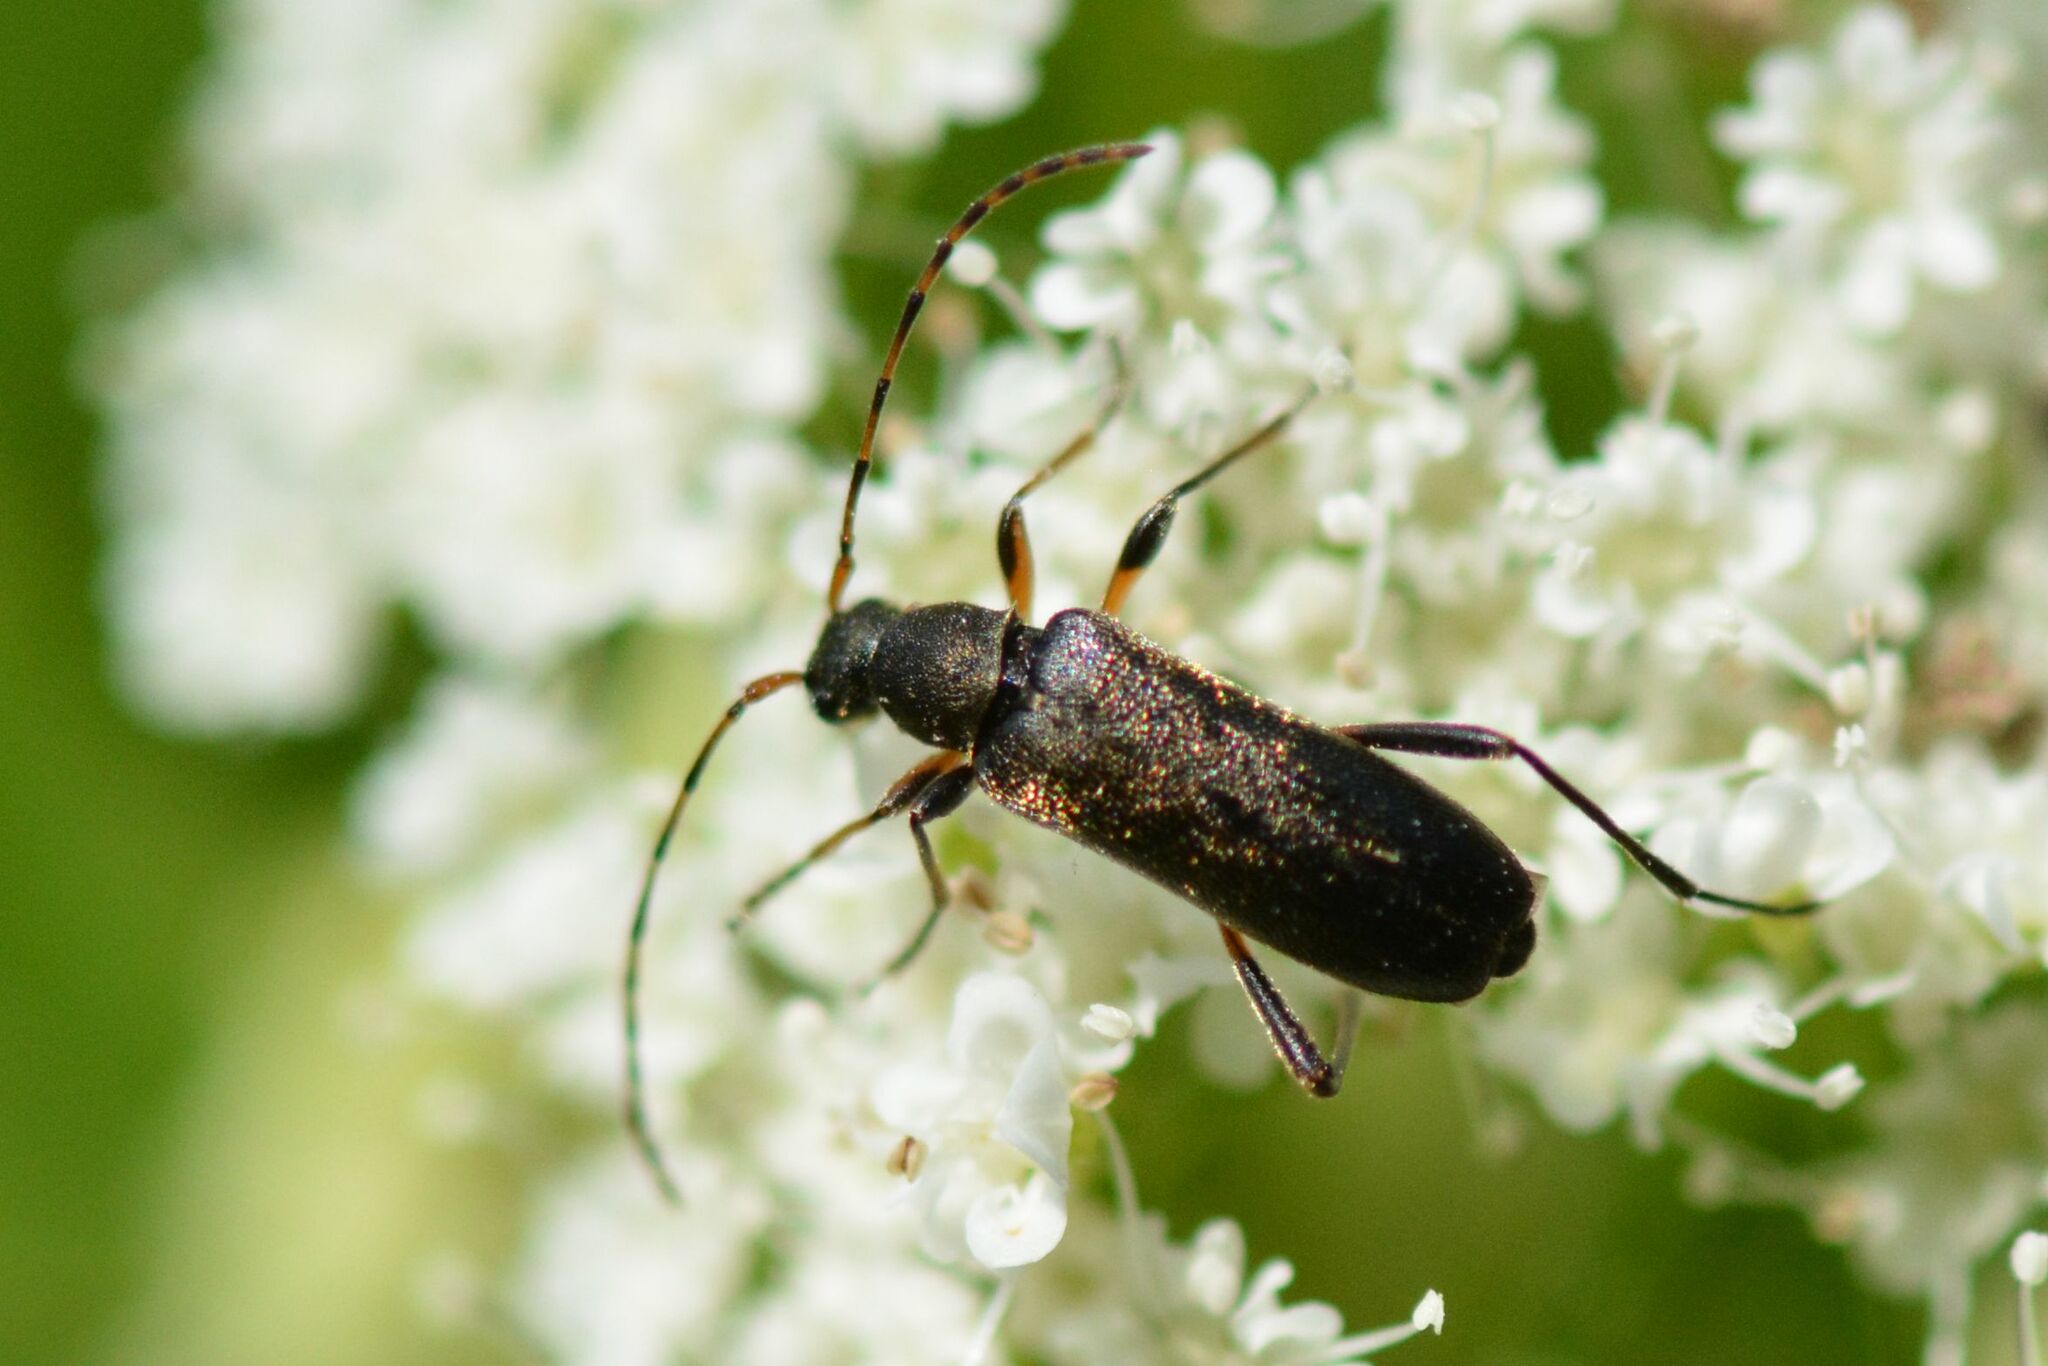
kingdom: Animalia
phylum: Arthropoda
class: Insecta
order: Coleoptera
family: Cerambycidae
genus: Grammoptera
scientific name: Grammoptera ruficornis
